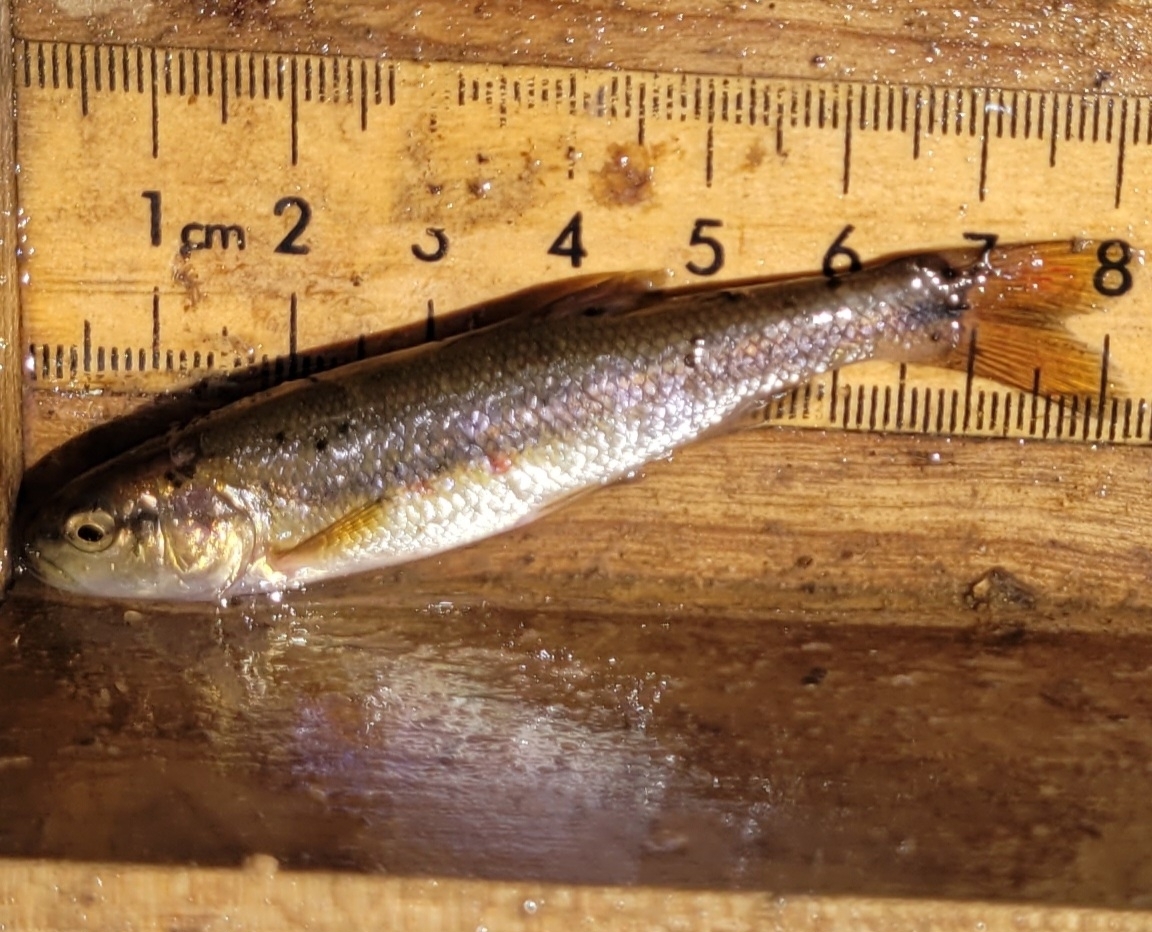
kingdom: Animalia
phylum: Chordata
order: Cypriniformes
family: Cyprinidae
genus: Semotilus
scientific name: Semotilus atromaculatus
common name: Creek chub
